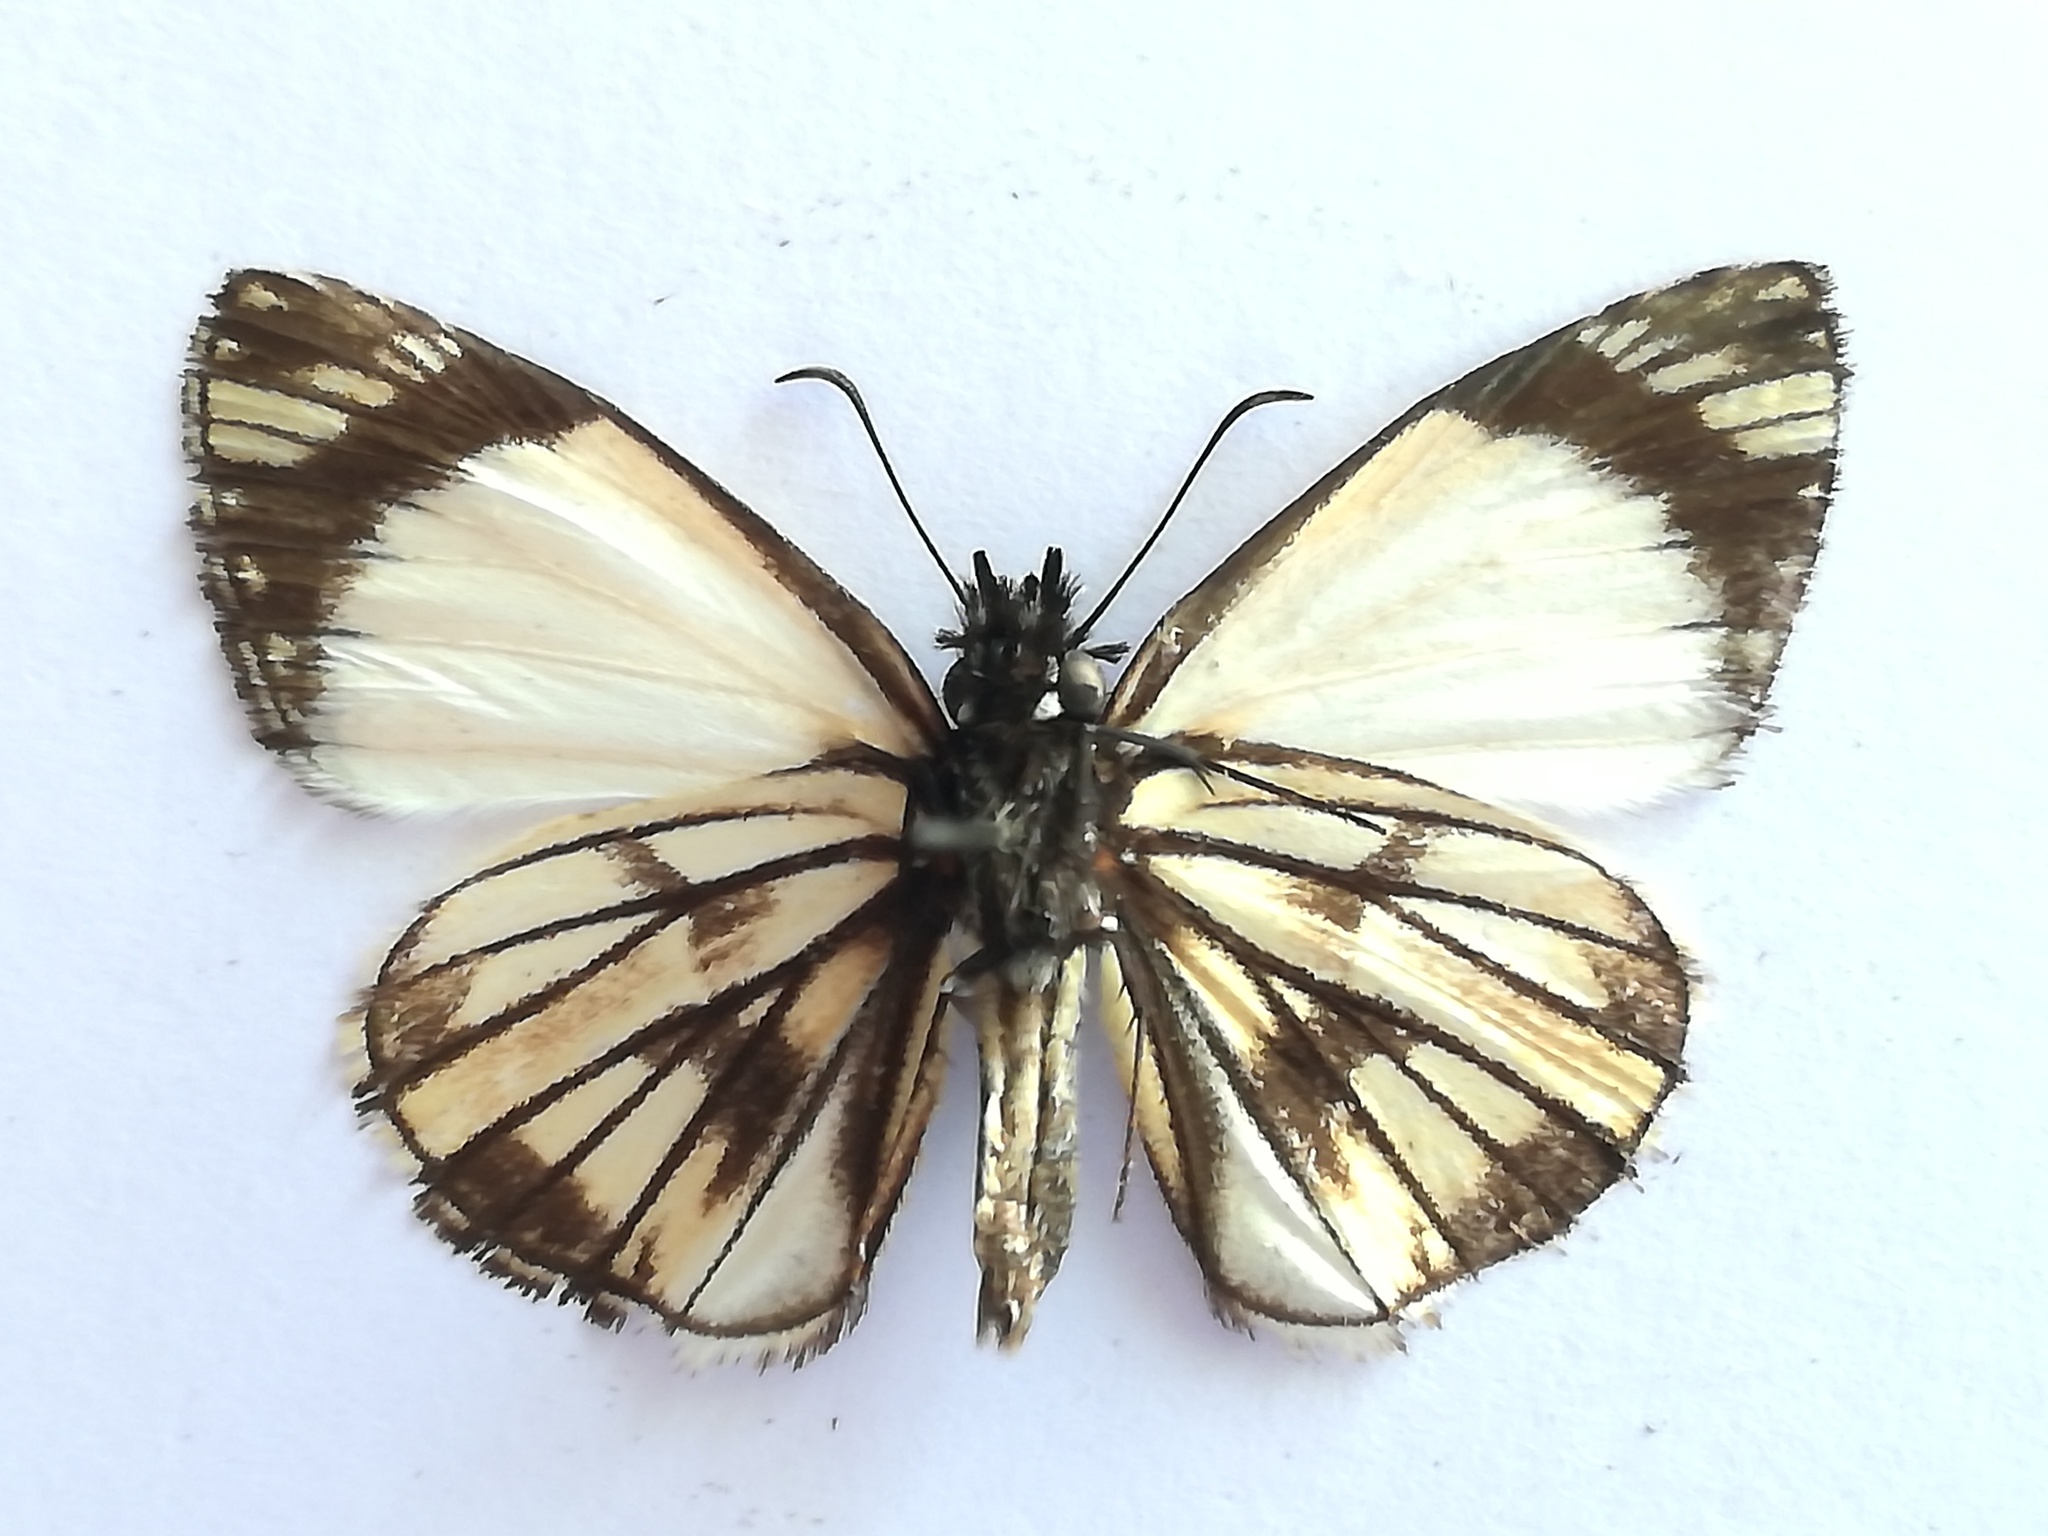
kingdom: Animalia
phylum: Arthropoda
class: Insecta
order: Lepidoptera
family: Hesperiidae
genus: Heliopetes
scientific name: Heliopetes alana
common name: Alana white-skipper
